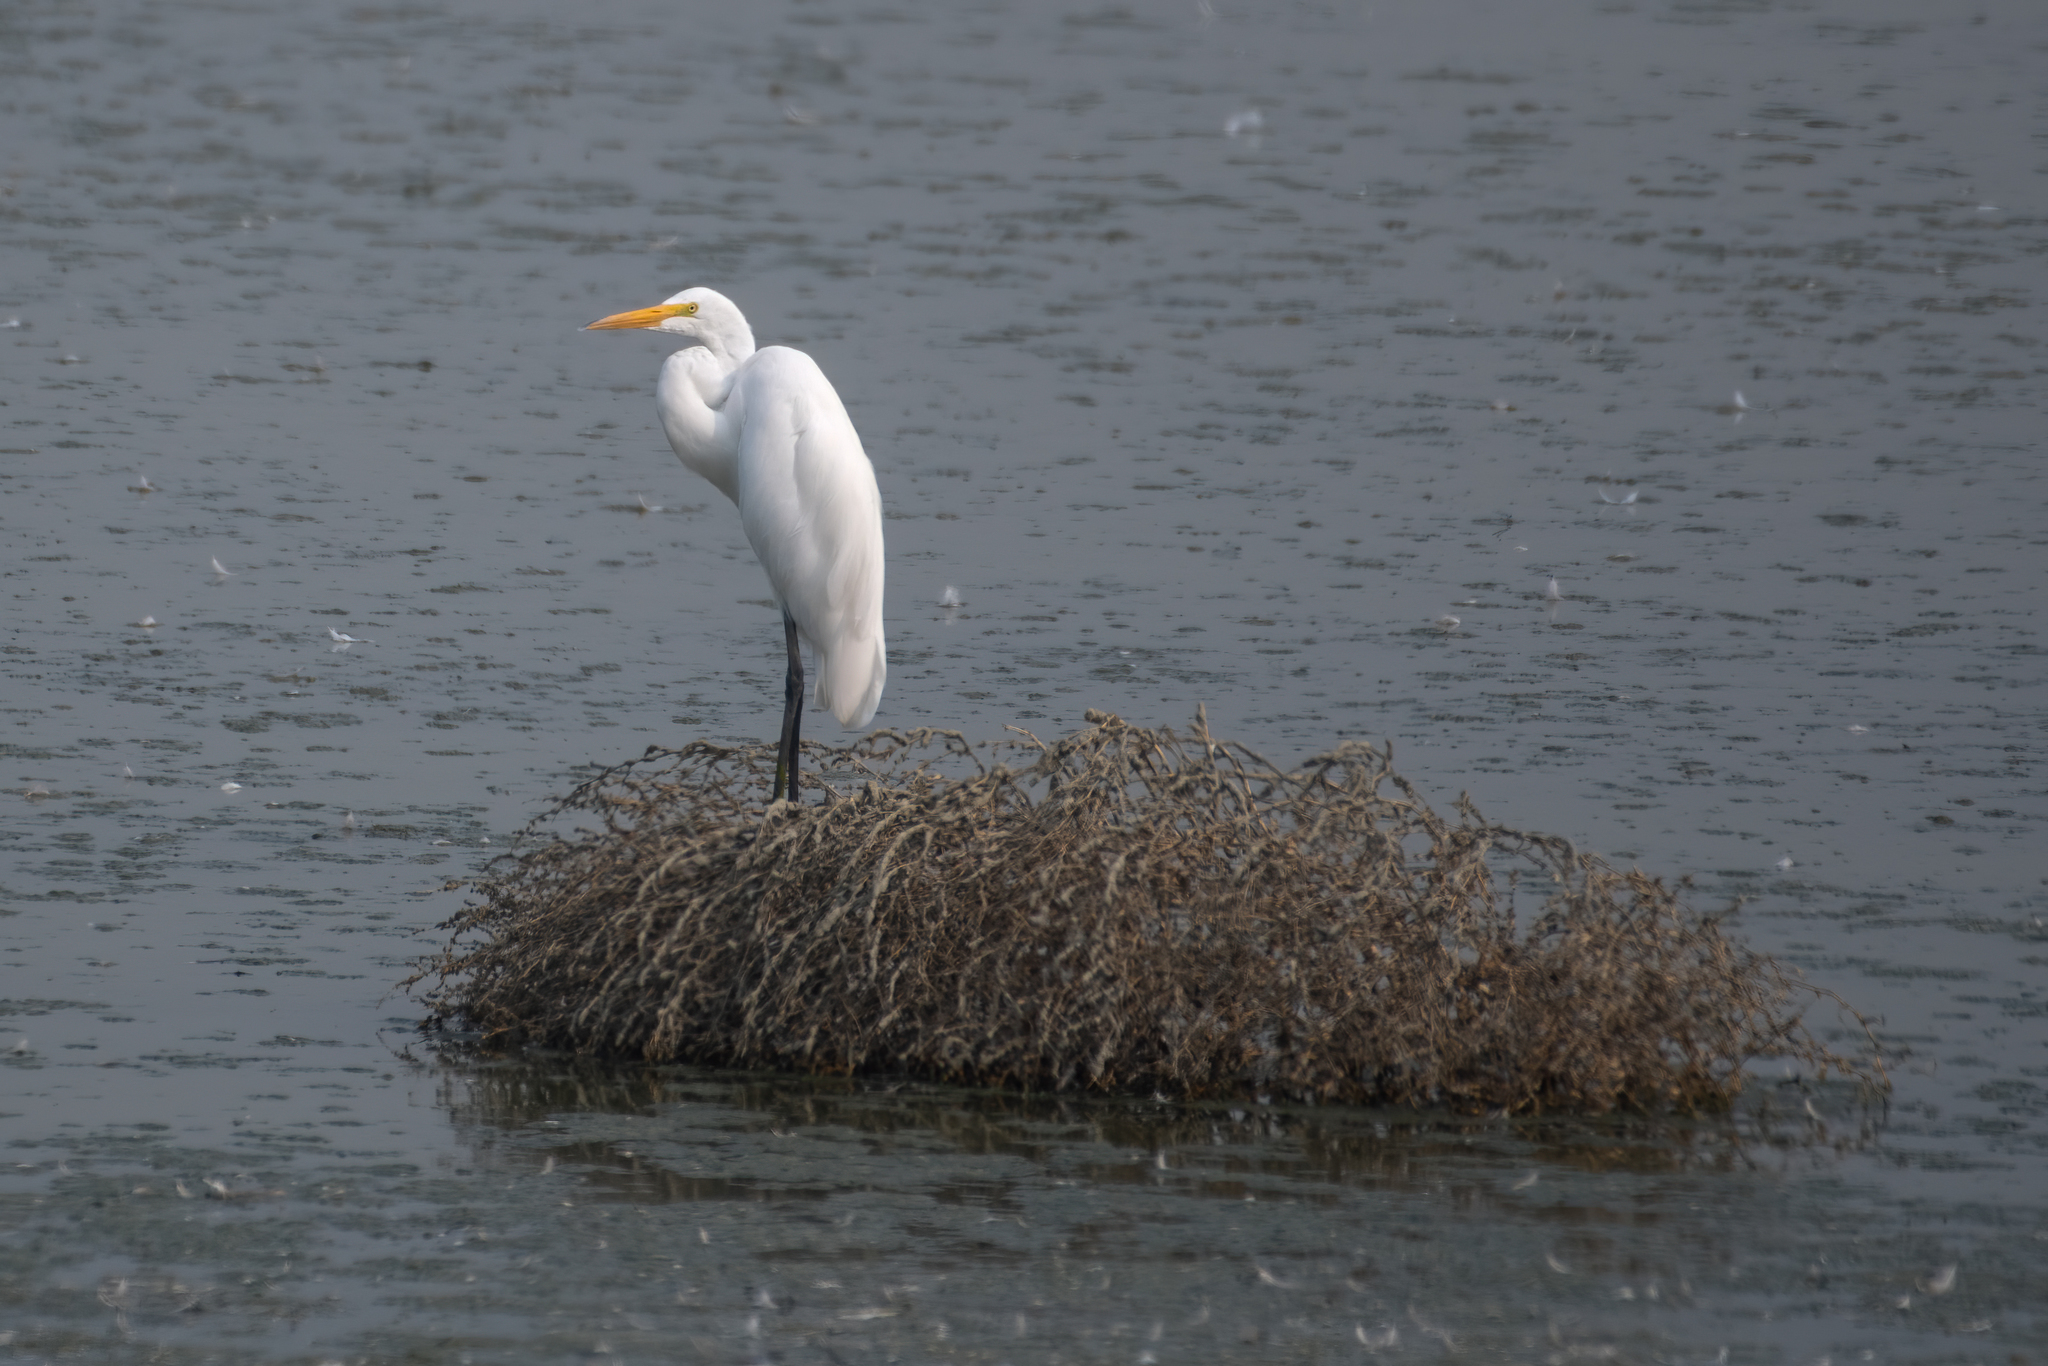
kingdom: Animalia
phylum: Chordata
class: Aves
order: Pelecaniformes
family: Ardeidae
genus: Ardea
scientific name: Ardea alba
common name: Great egret
